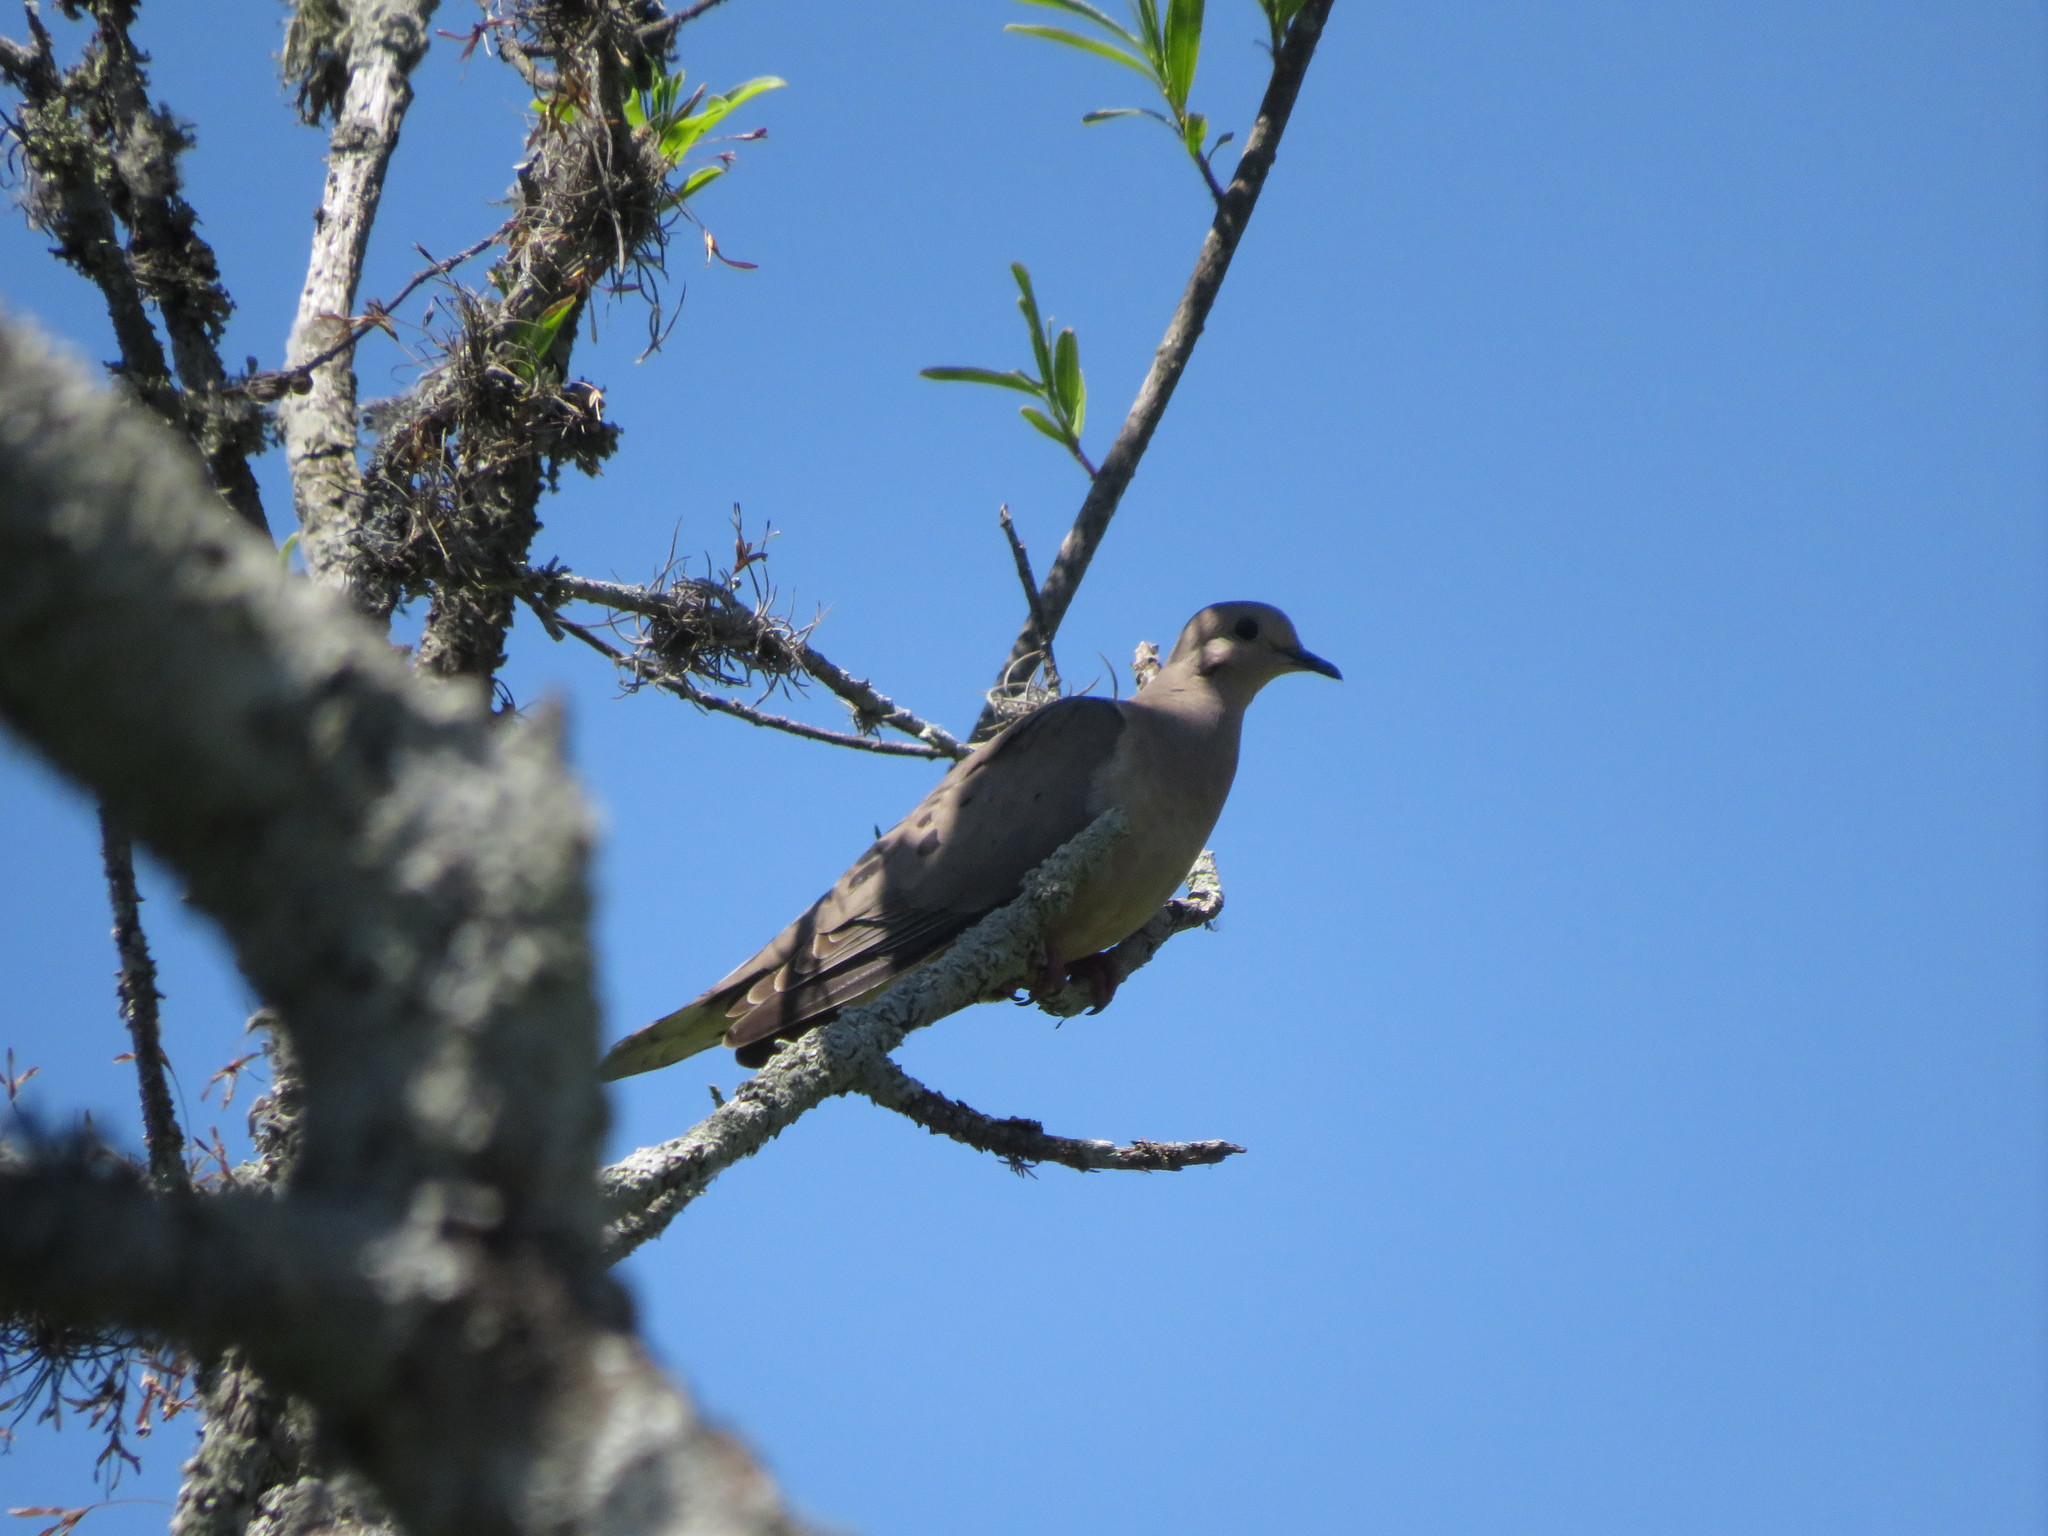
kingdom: Animalia
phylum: Chordata
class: Aves
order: Columbiformes
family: Columbidae
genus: Zenaida
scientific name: Zenaida auriculata
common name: Eared dove
